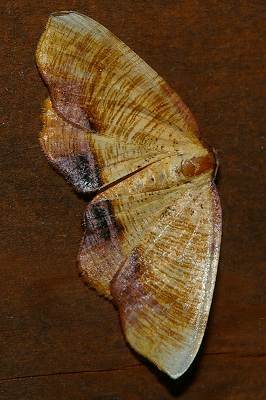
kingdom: Animalia
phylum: Arthropoda
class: Insecta
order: Lepidoptera
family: Geometridae
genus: Plagodis
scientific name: Plagodis dolabraria
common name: Scorched wing
